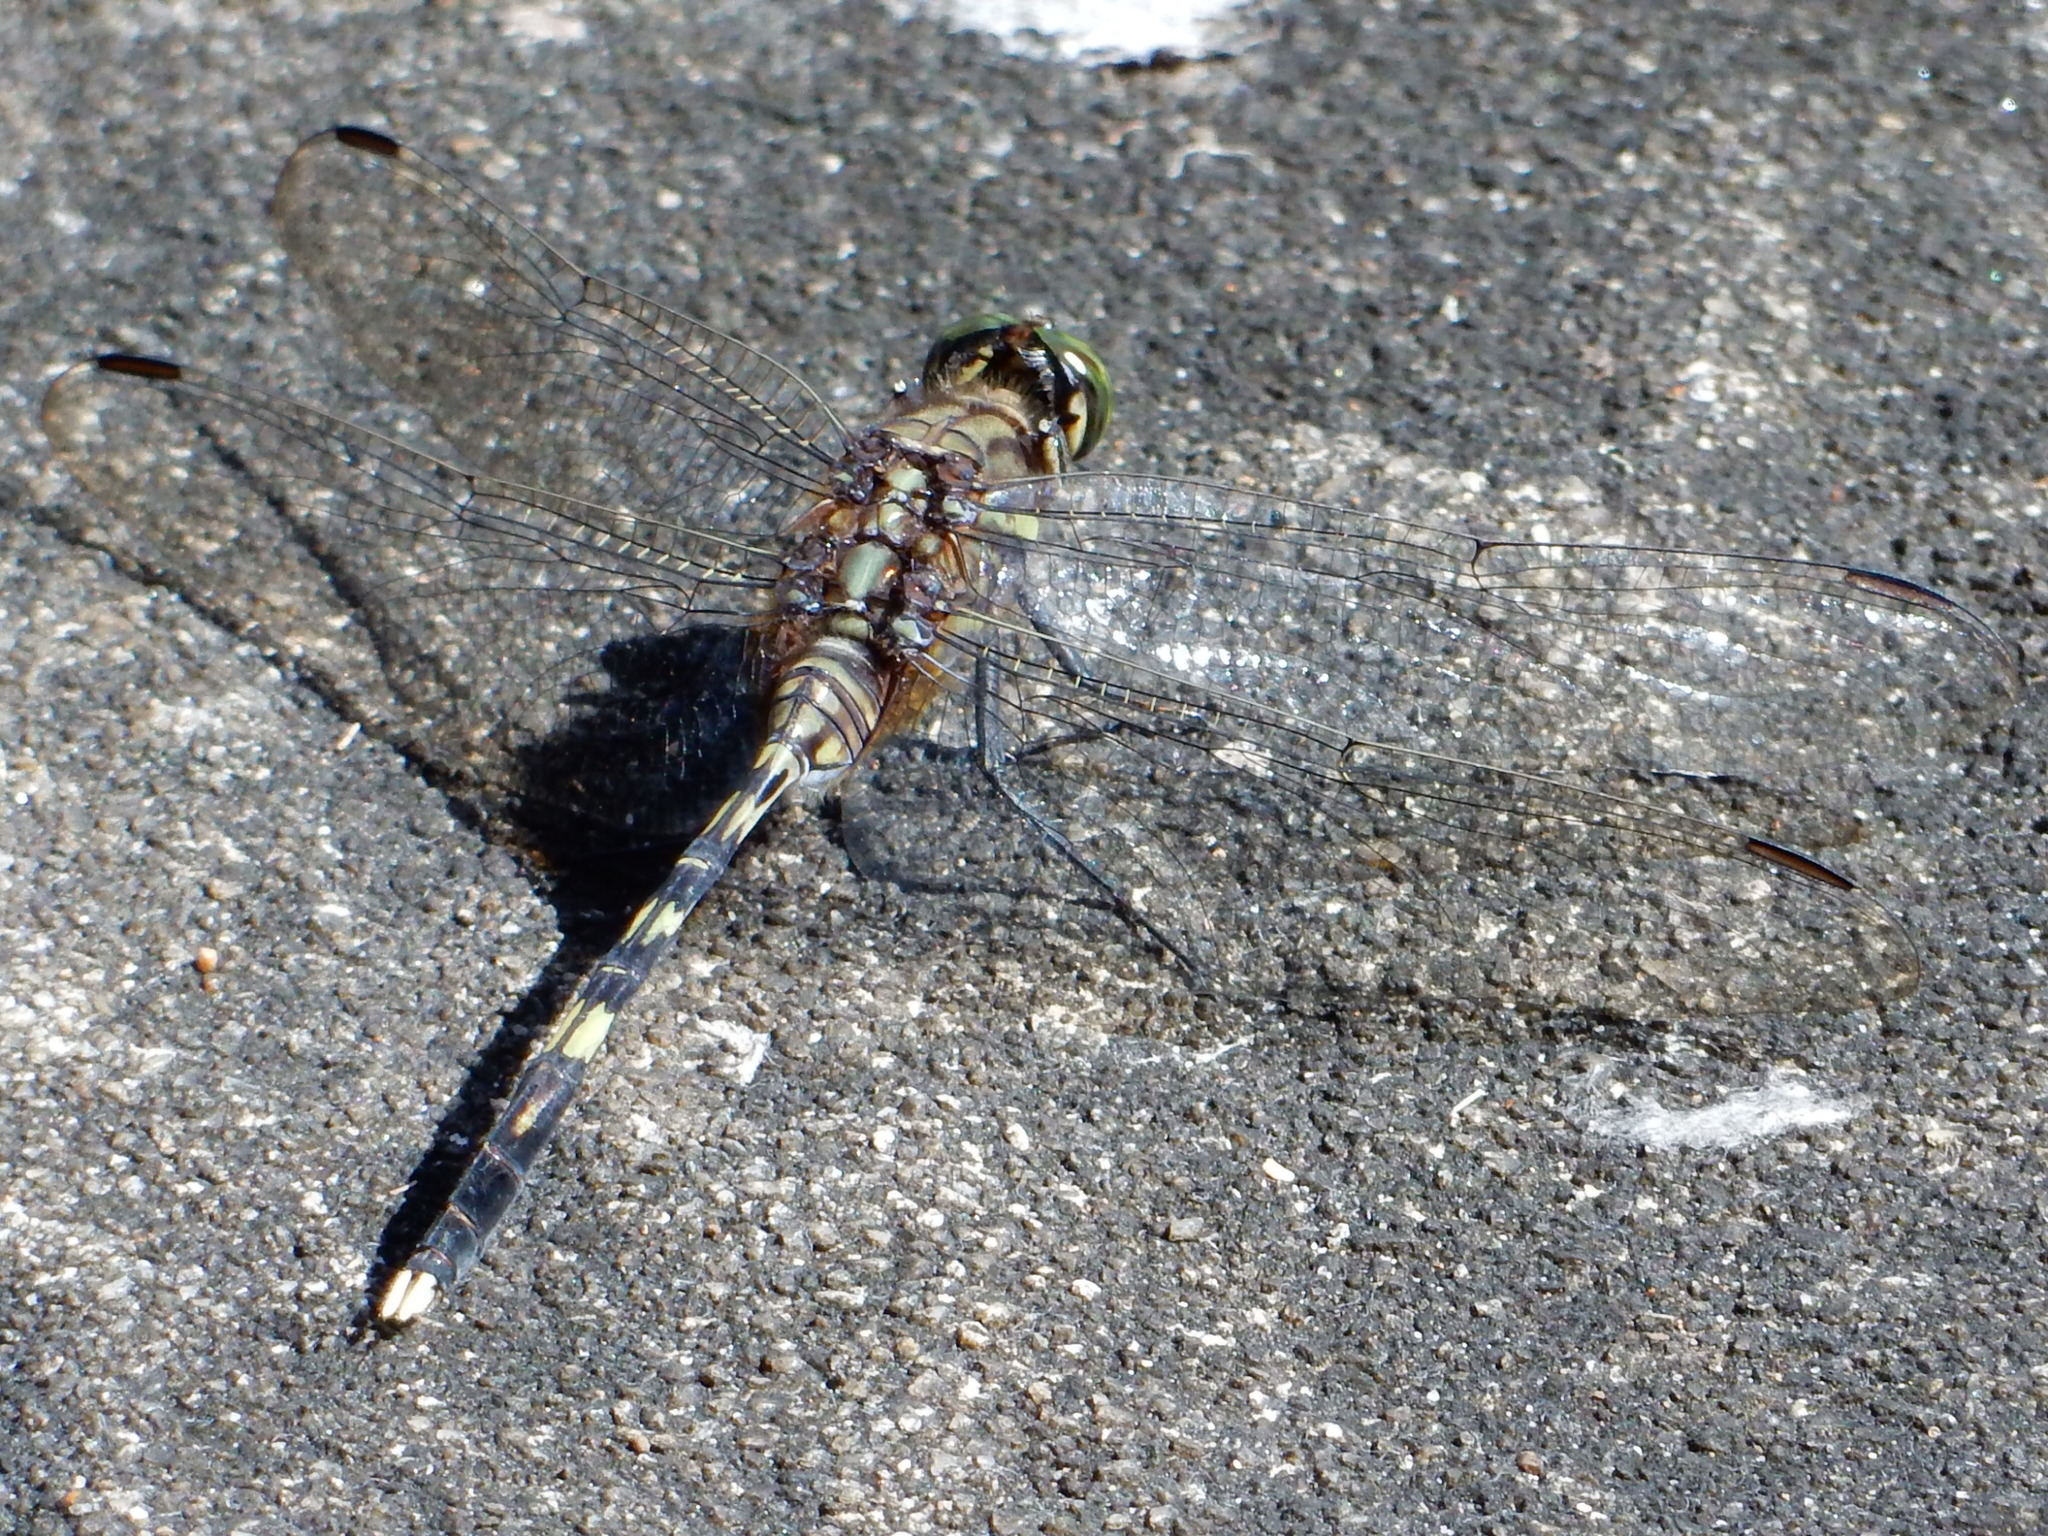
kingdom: Animalia
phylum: Arthropoda
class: Insecta
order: Odonata
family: Libellulidae
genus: Orthetrum
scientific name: Orthetrum serapia
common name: Green skimmer
